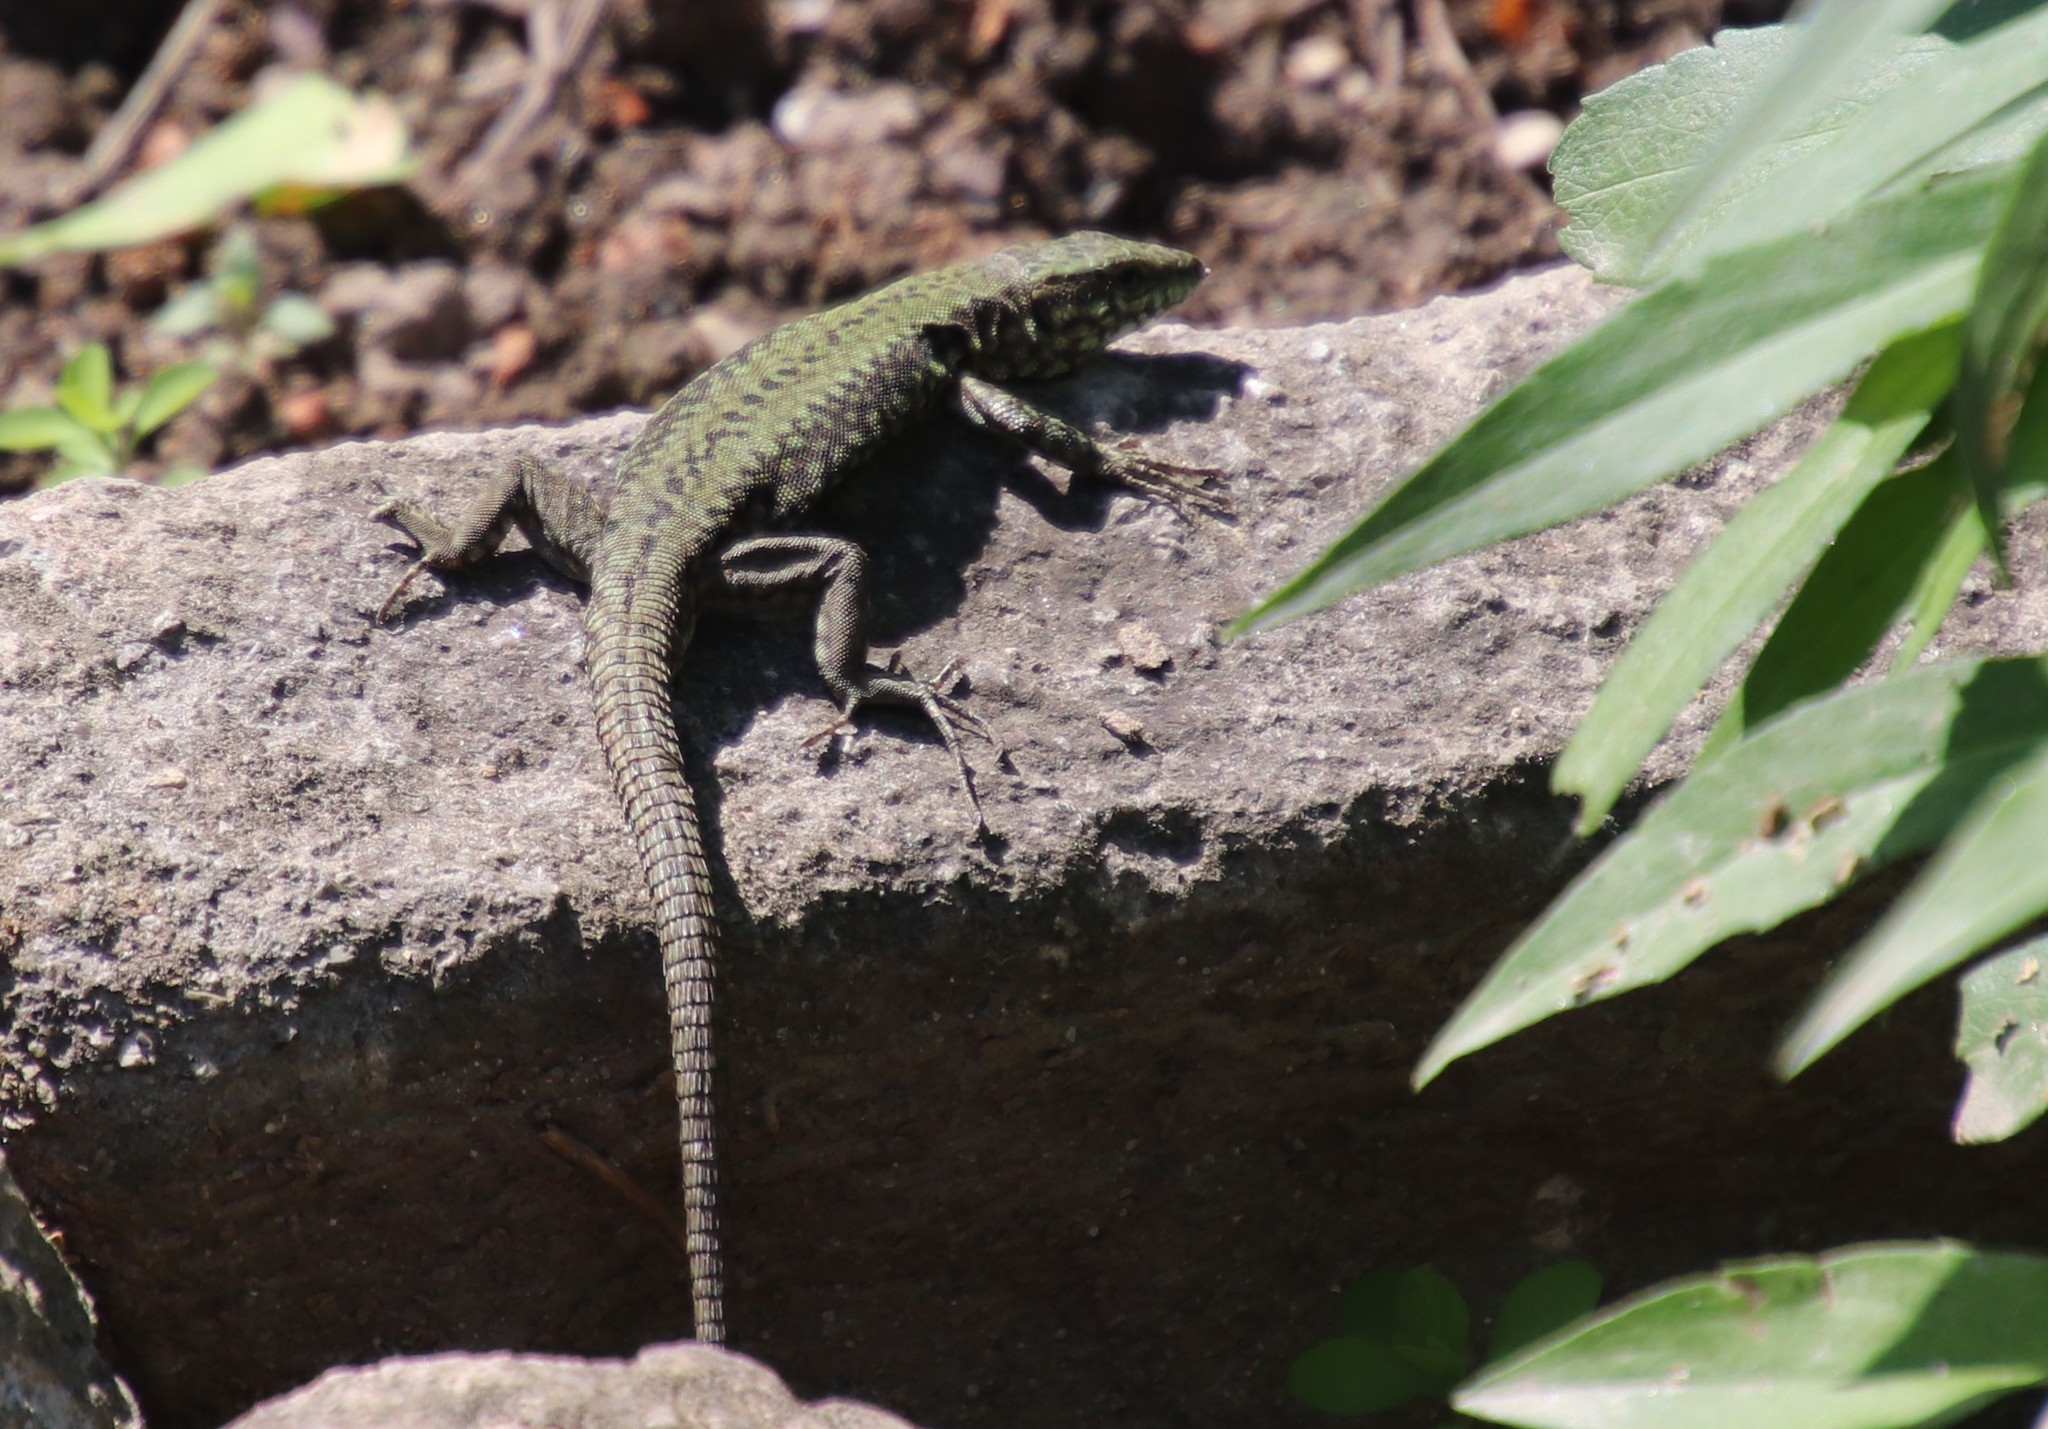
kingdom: Animalia
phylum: Chordata
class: Squamata
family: Lacertidae
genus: Podarcis
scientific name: Podarcis muralis
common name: Common wall lizard
